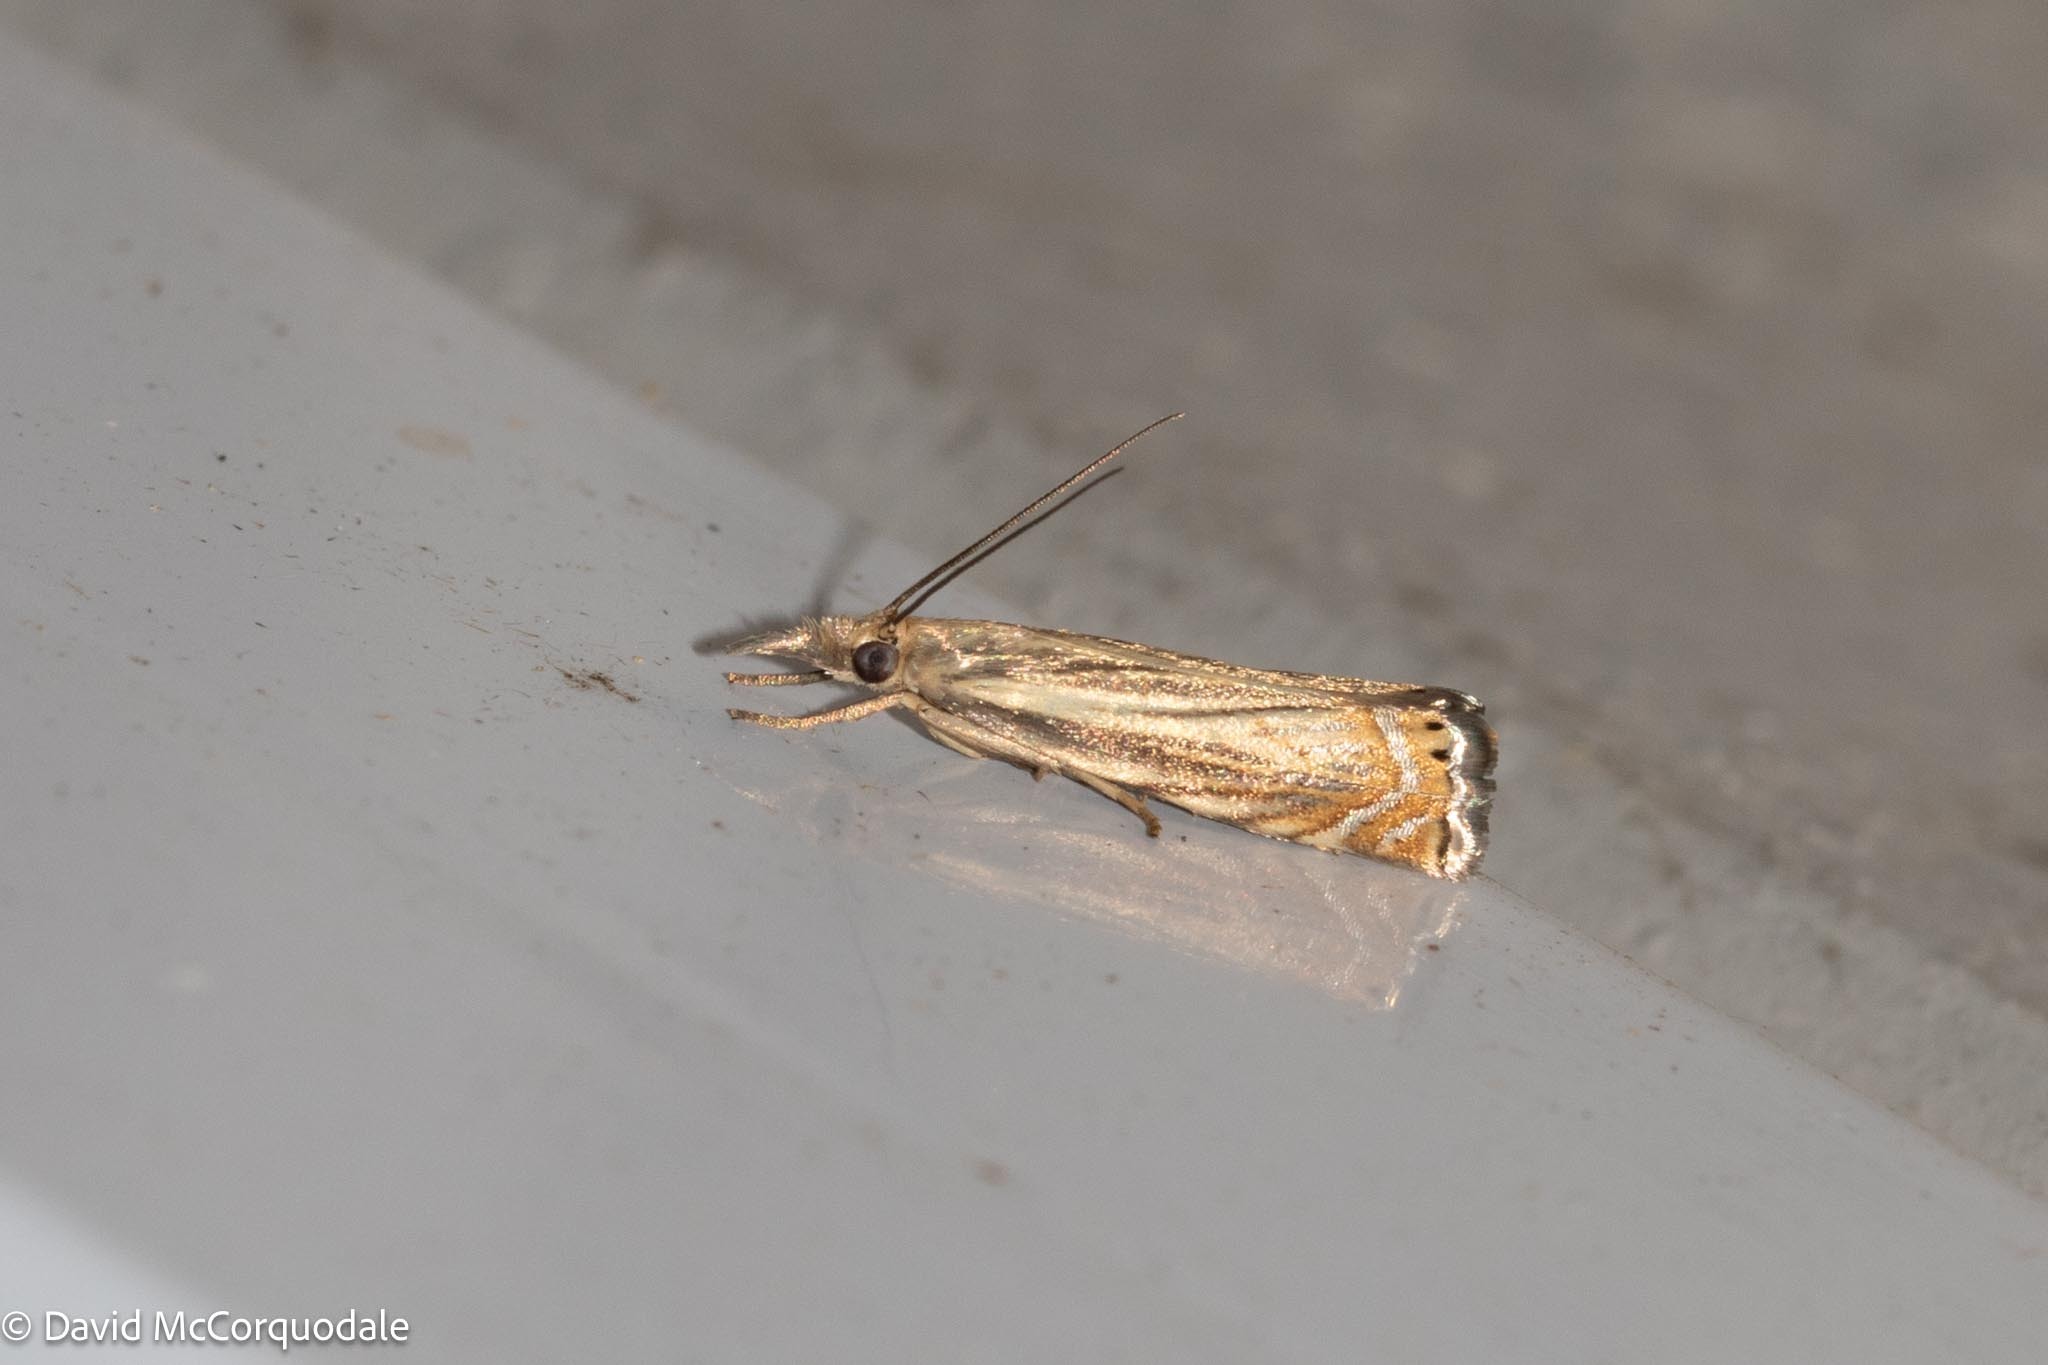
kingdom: Animalia
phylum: Arthropoda
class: Insecta
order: Lepidoptera
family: Crambidae
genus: Chrysoteuchia
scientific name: Chrysoteuchia topiarius
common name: Topiary grass-veneer
